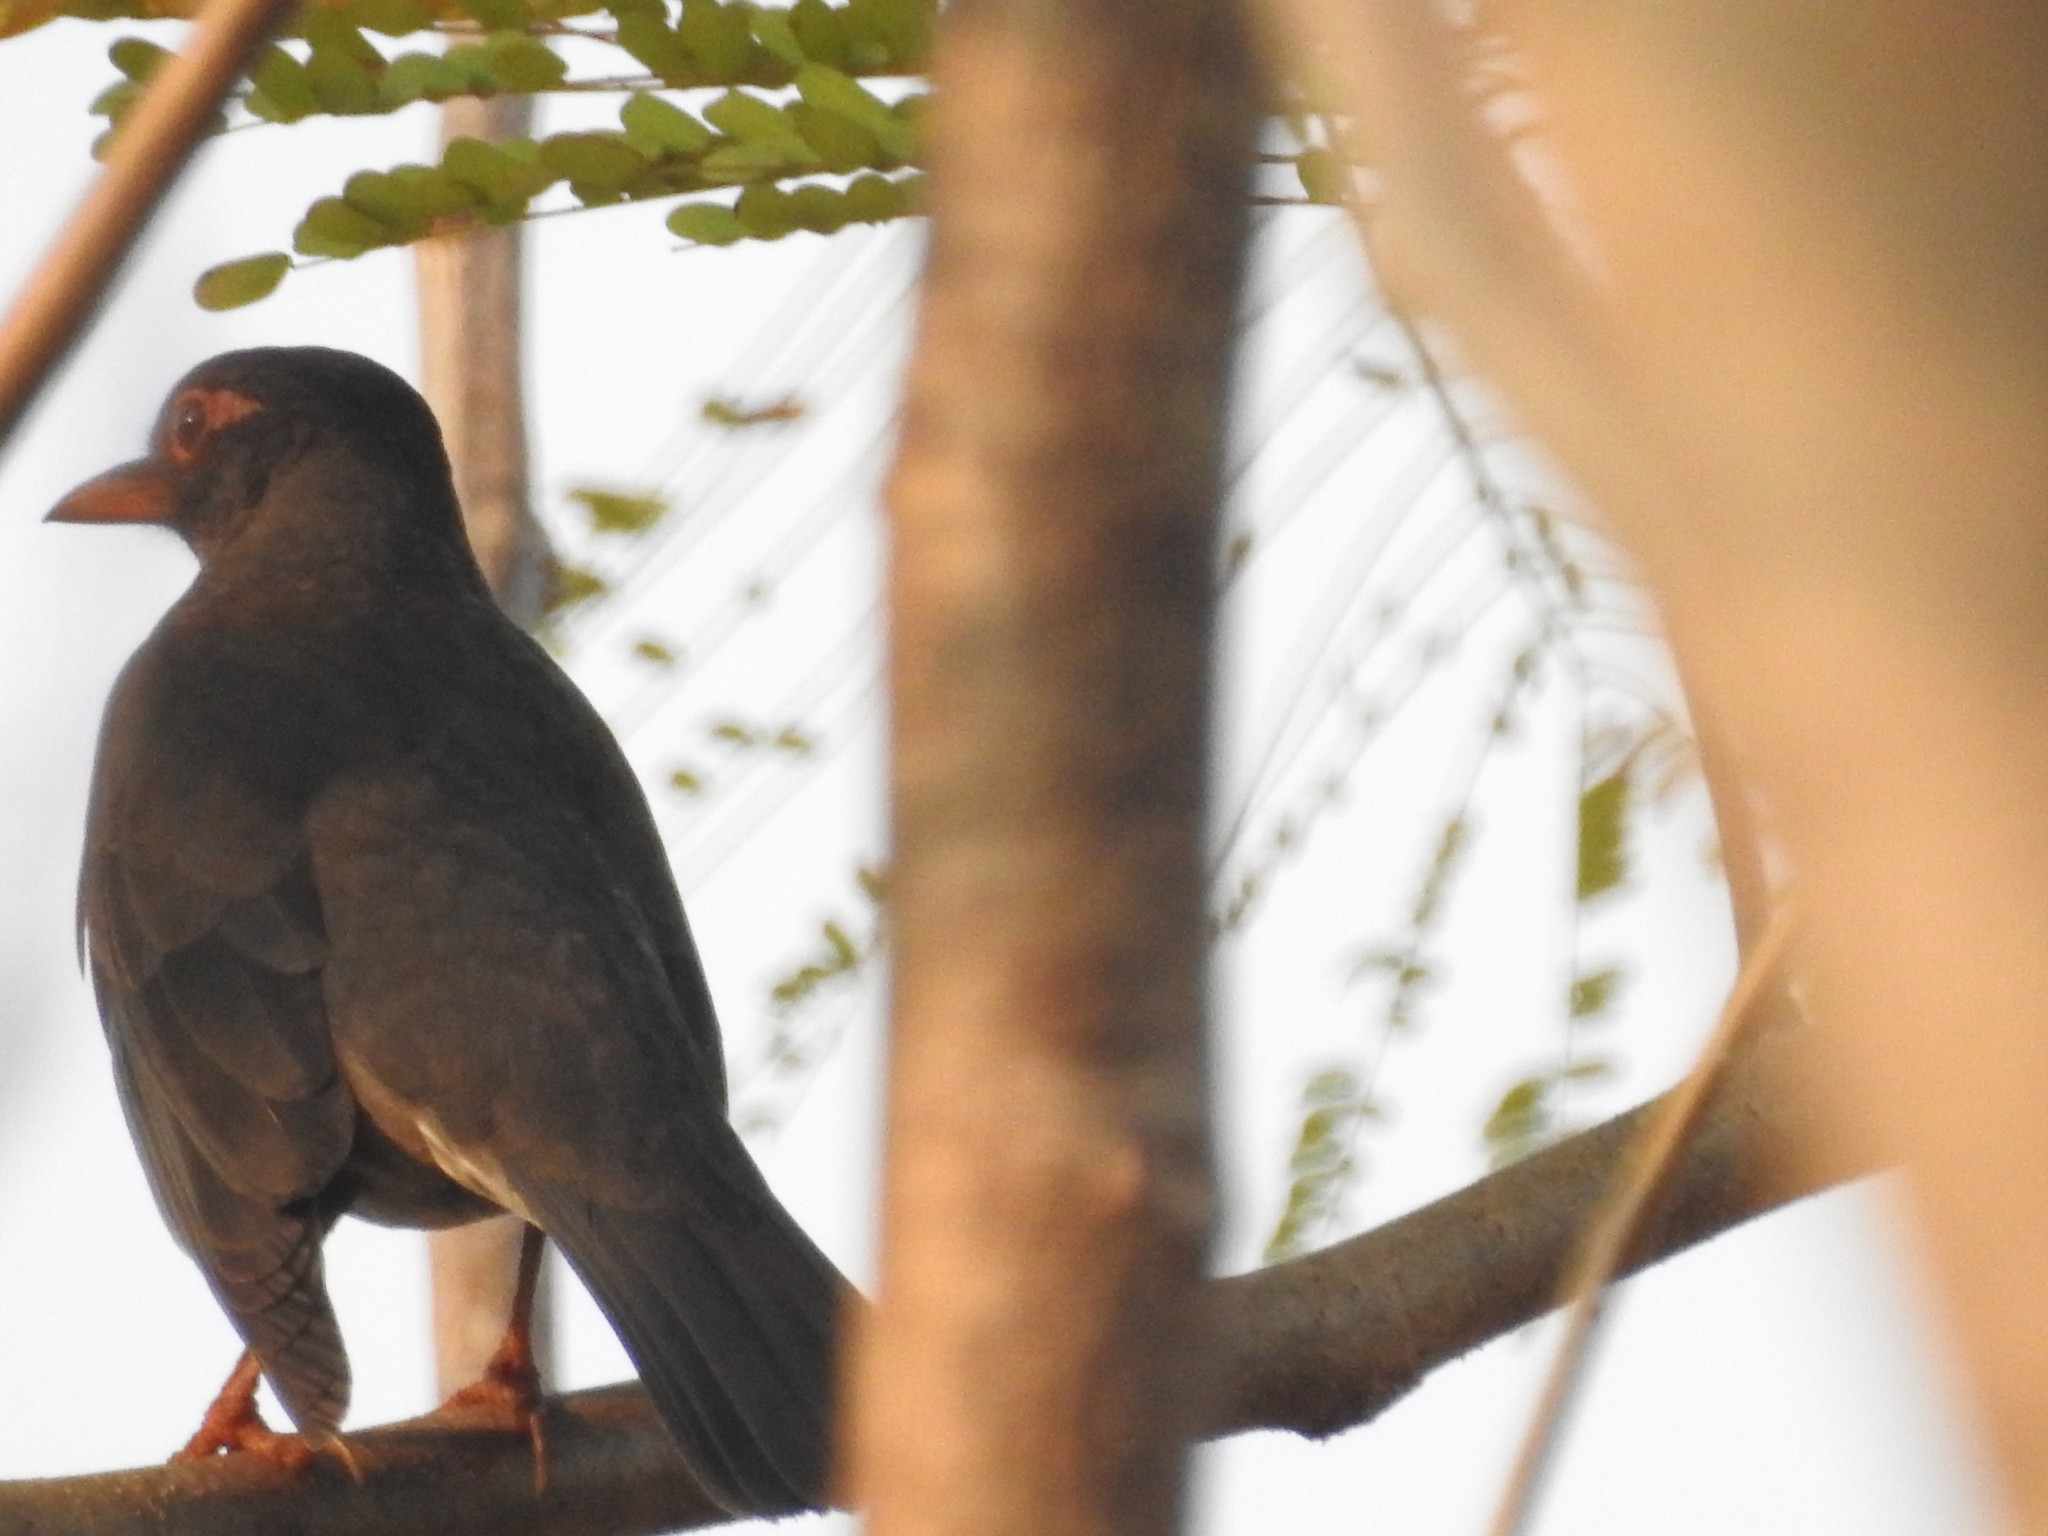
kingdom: Animalia
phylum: Chordata
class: Aves
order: Passeriformes
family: Turdidae
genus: Turdus
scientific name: Turdus simillimus
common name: Indian blackbird
